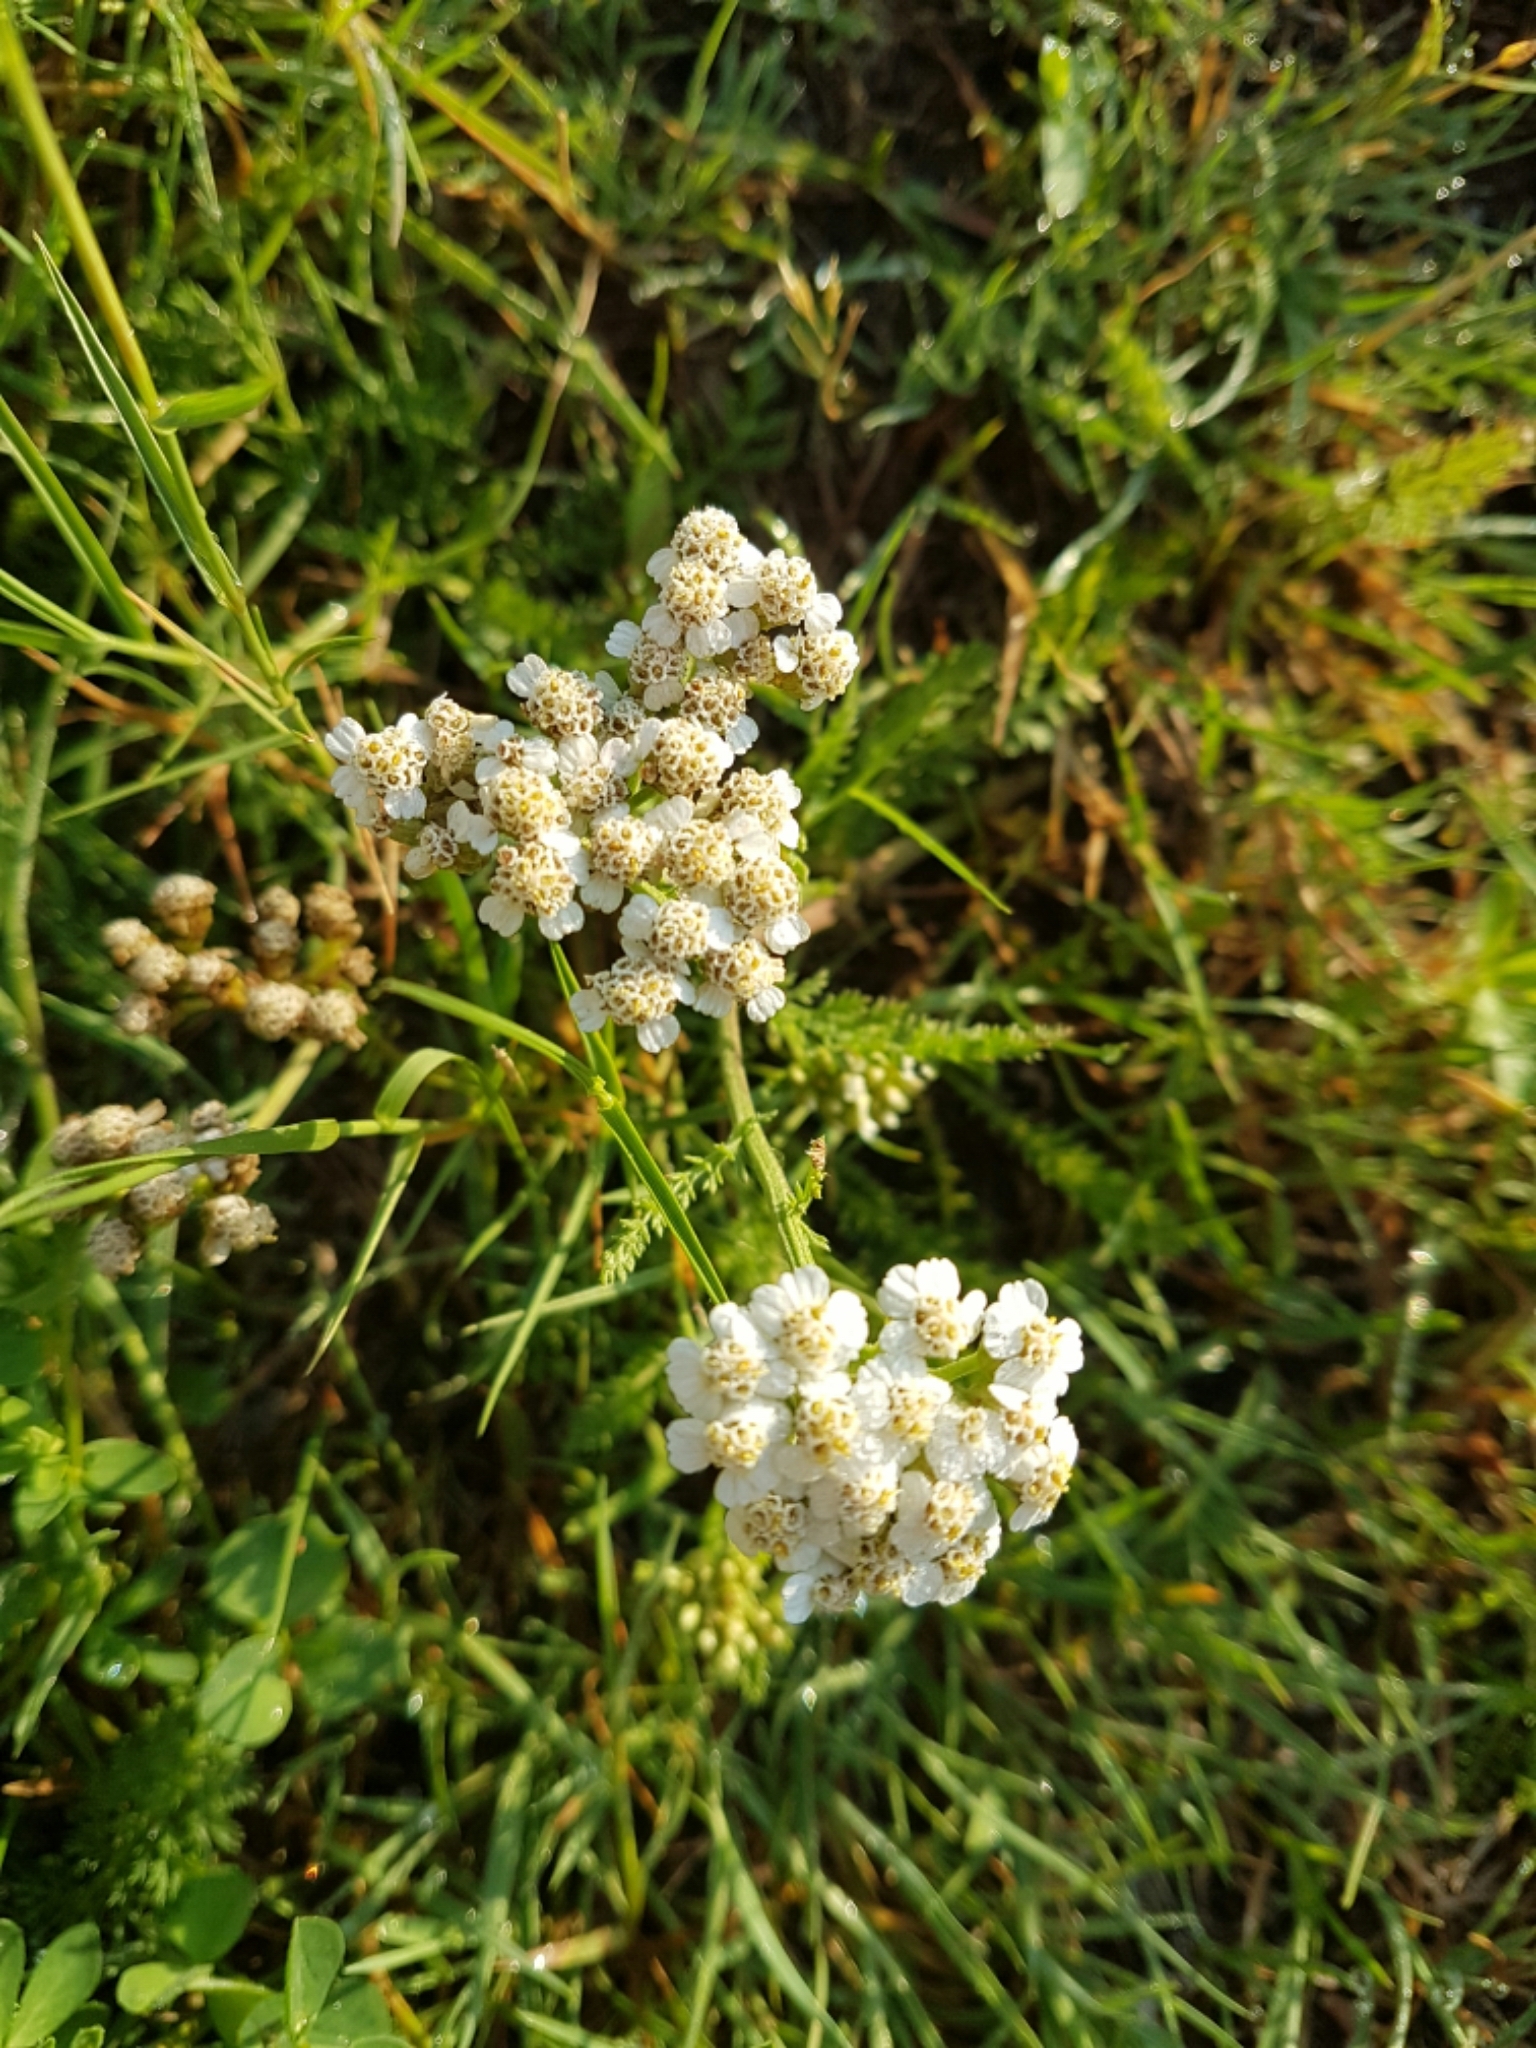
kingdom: Plantae
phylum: Tracheophyta
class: Magnoliopsida
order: Asterales
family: Asteraceae
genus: Achillea
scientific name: Achillea millefolium
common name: Yarrow
